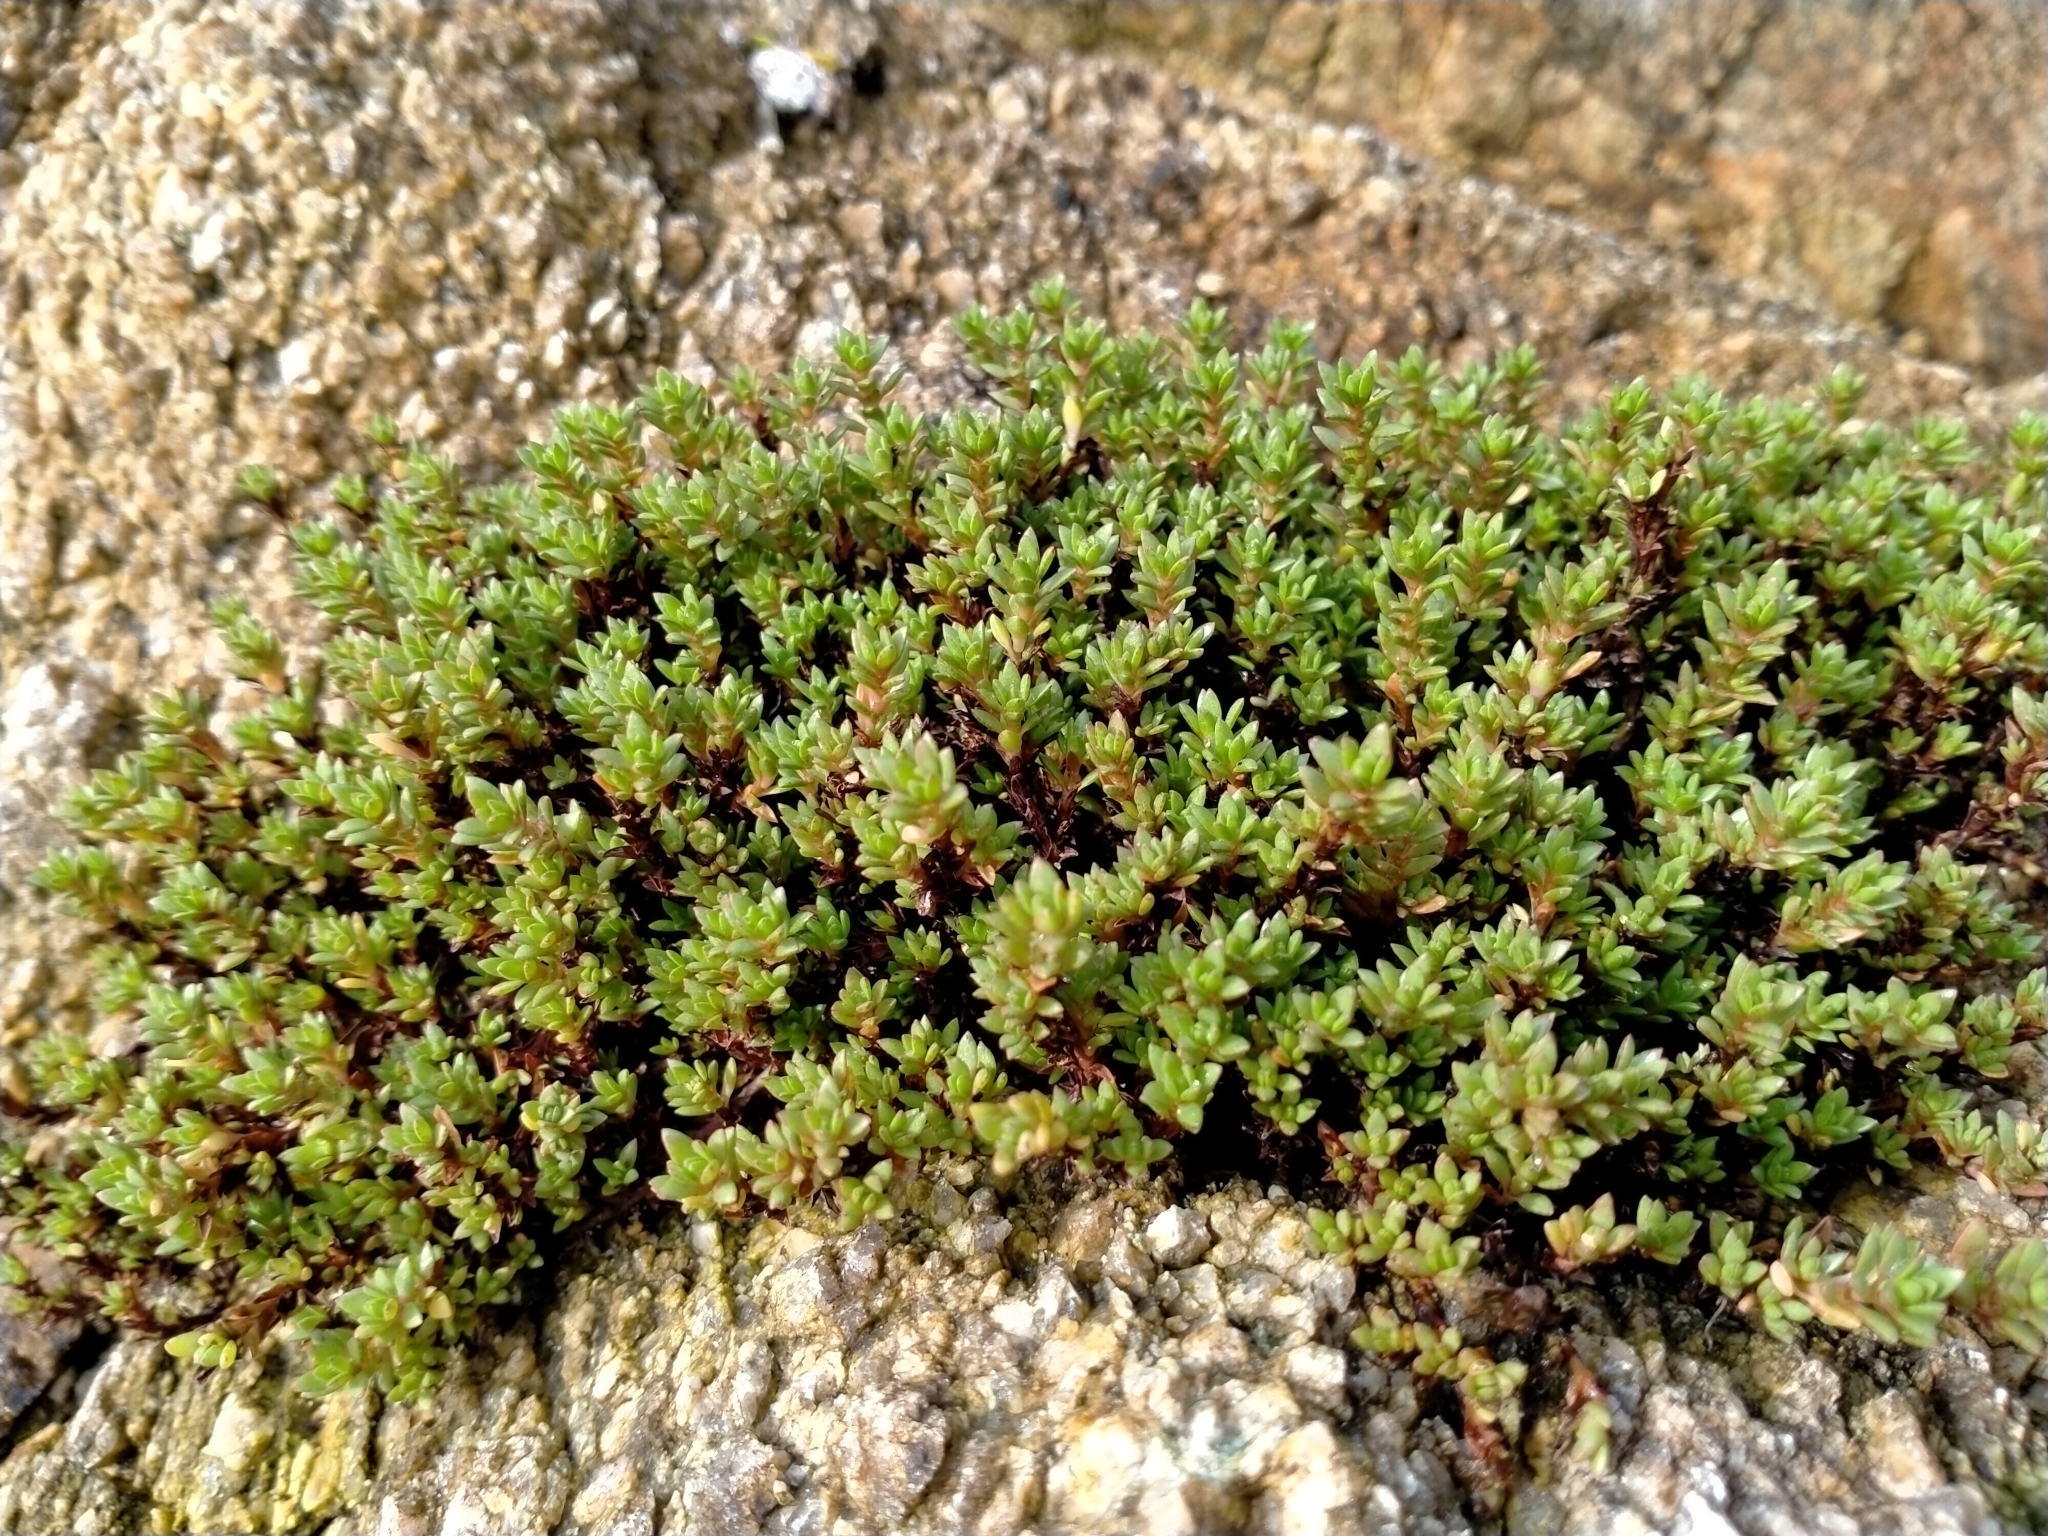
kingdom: Plantae
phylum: Tracheophyta
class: Magnoliopsida
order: Saxifragales
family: Crassulaceae
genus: Crassula
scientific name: Crassula moschata
